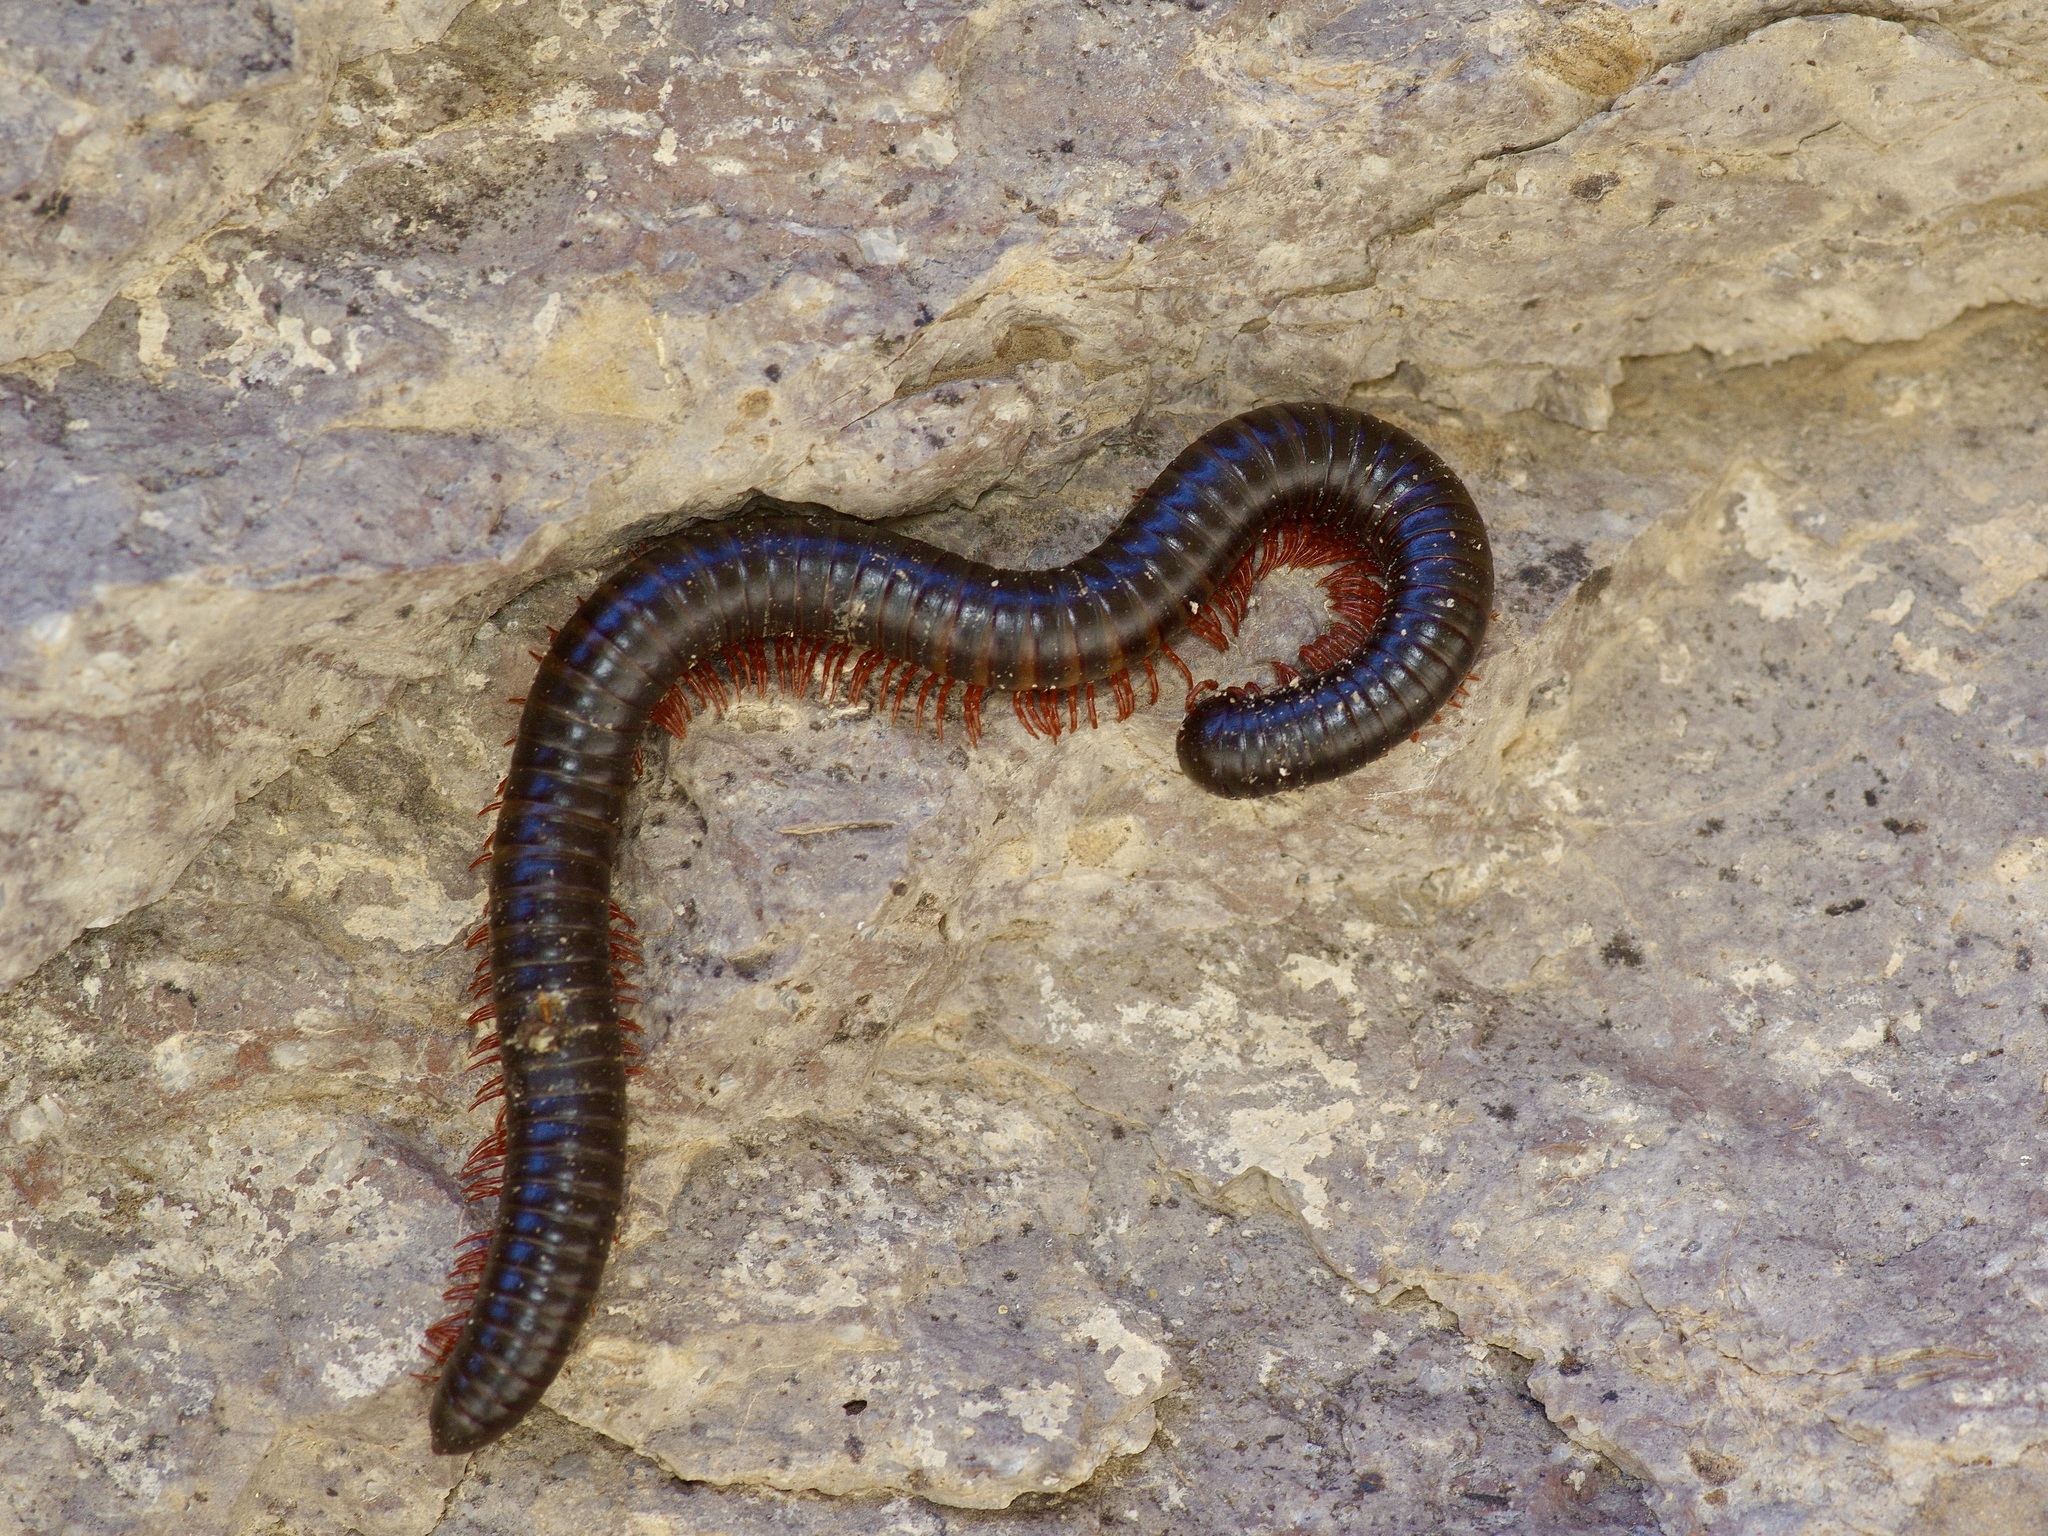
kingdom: Animalia
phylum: Arthropoda
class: Diplopoda
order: Spirostreptida
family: Spirostreptidae
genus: Orthoporus
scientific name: Orthoporus ornatus
